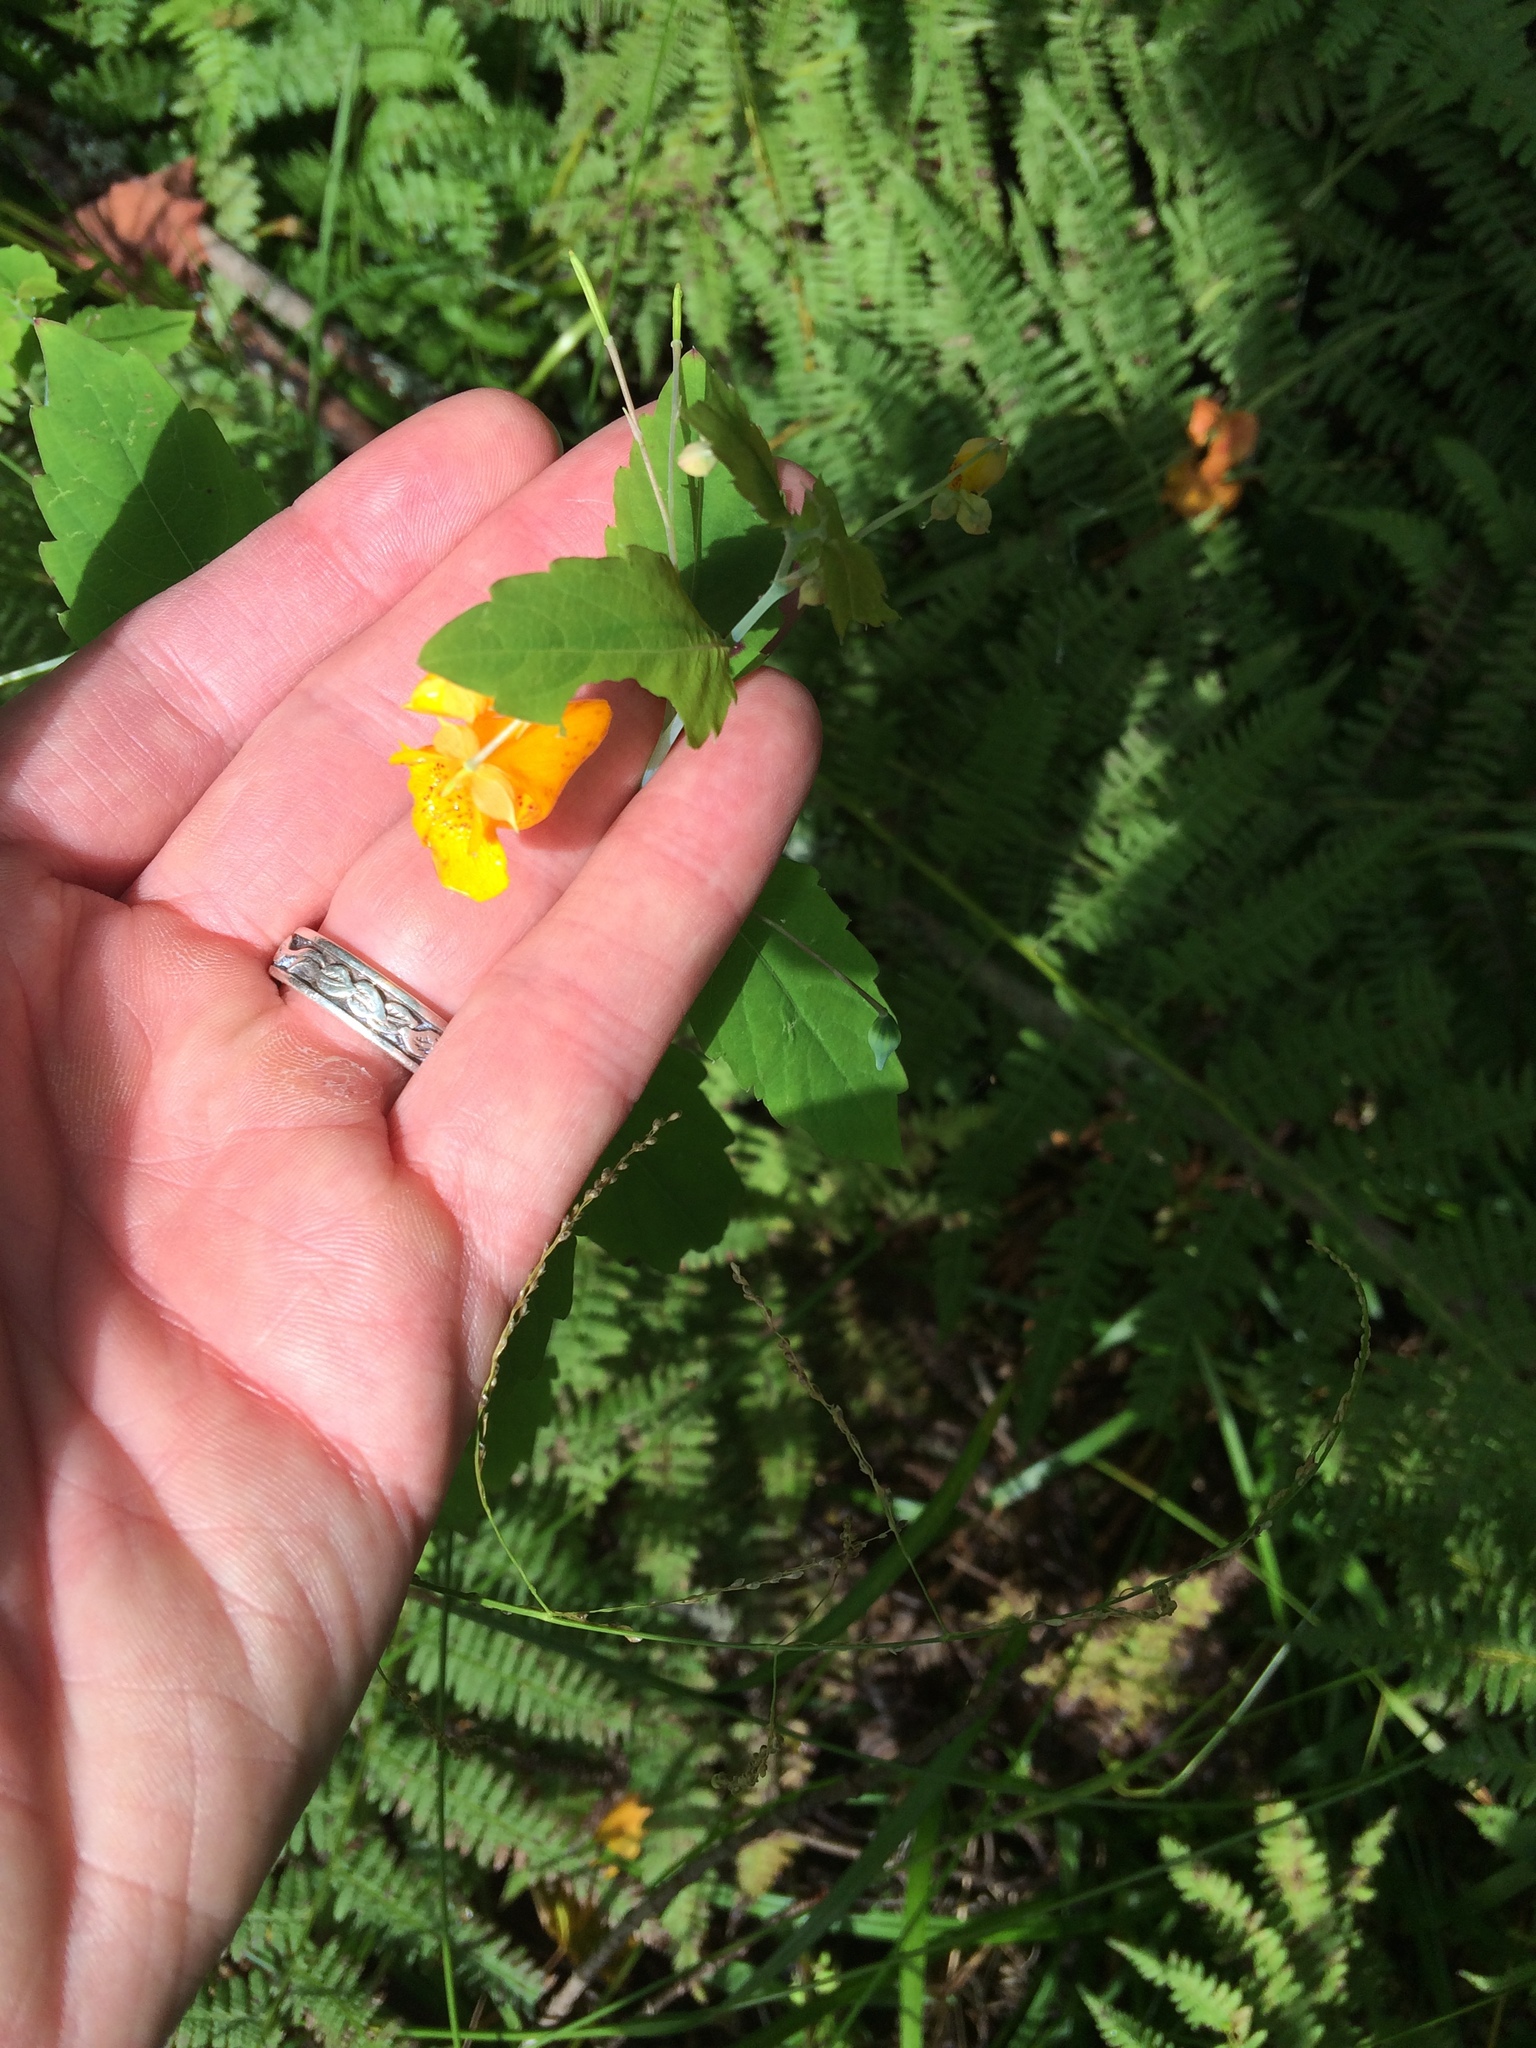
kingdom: Plantae
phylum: Tracheophyta
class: Magnoliopsida
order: Ericales
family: Balsaminaceae
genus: Impatiens
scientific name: Impatiens capensis
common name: Orange balsam
